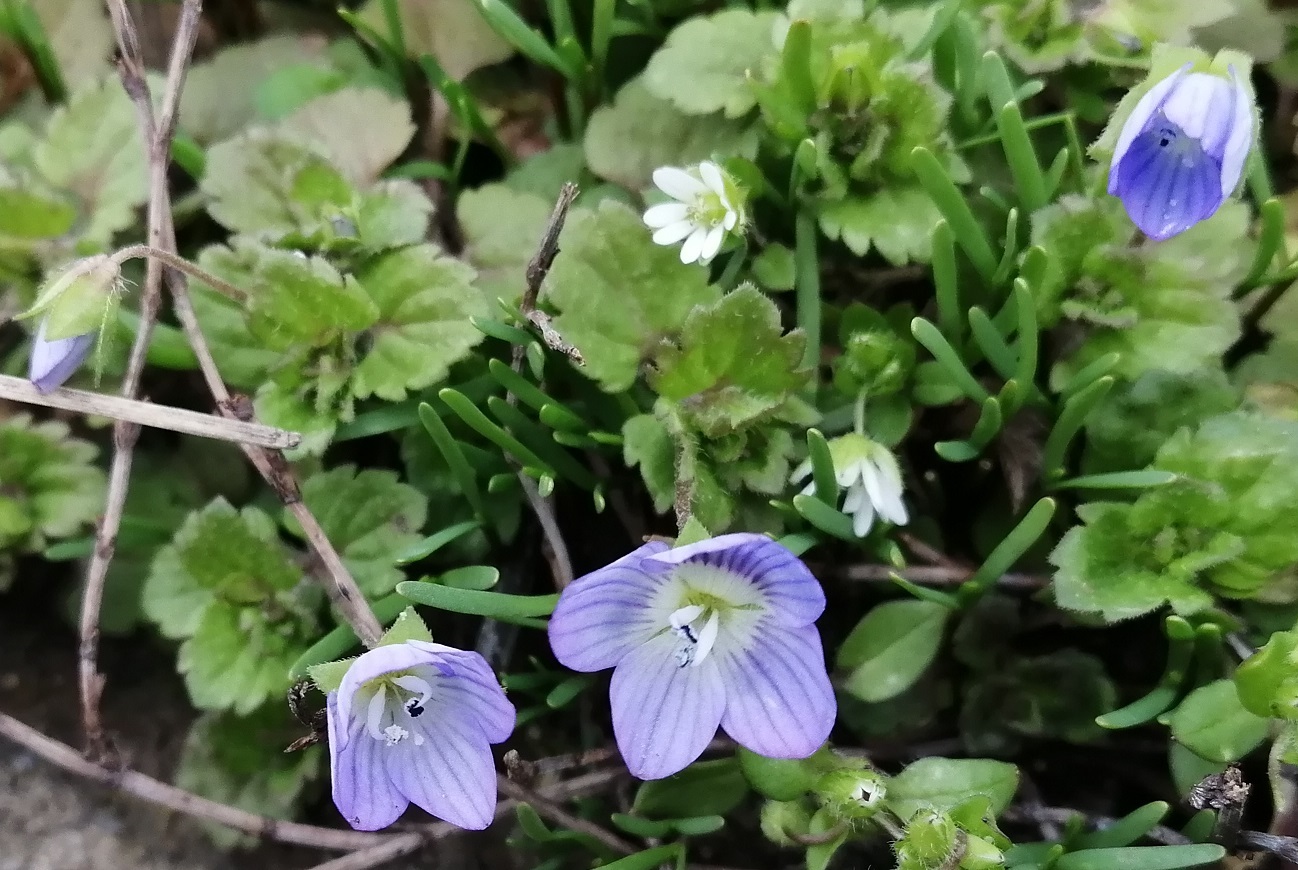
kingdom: Plantae
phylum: Tracheophyta
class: Magnoliopsida
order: Lamiales
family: Plantaginaceae
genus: Veronica
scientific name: Veronica persica
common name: Common field-speedwell
